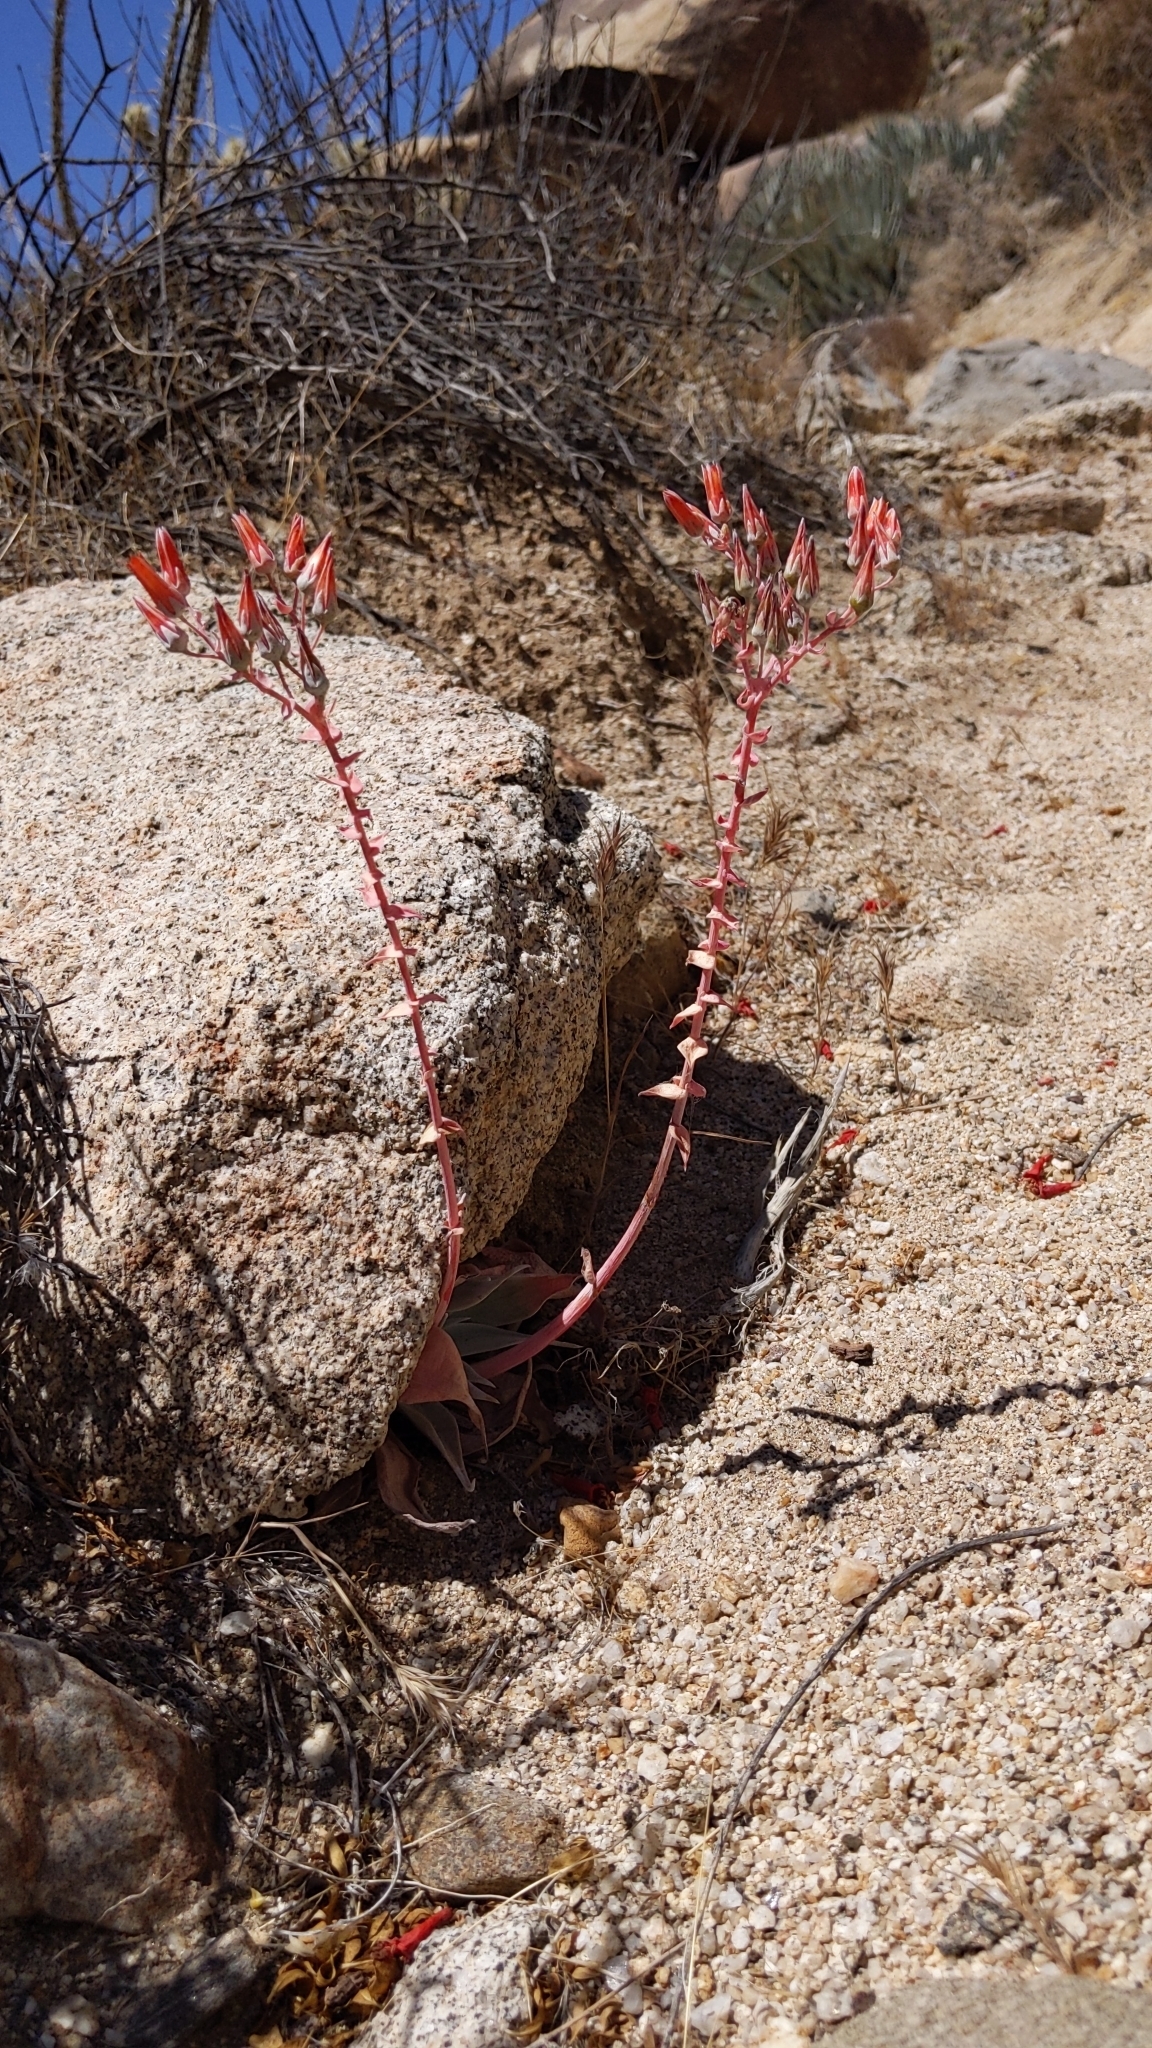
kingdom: Plantae
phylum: Tracheophyta
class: Magnoliopsida
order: Saxifragales
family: Crassulaceae
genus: Dudleya
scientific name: Dudleya arizonica
